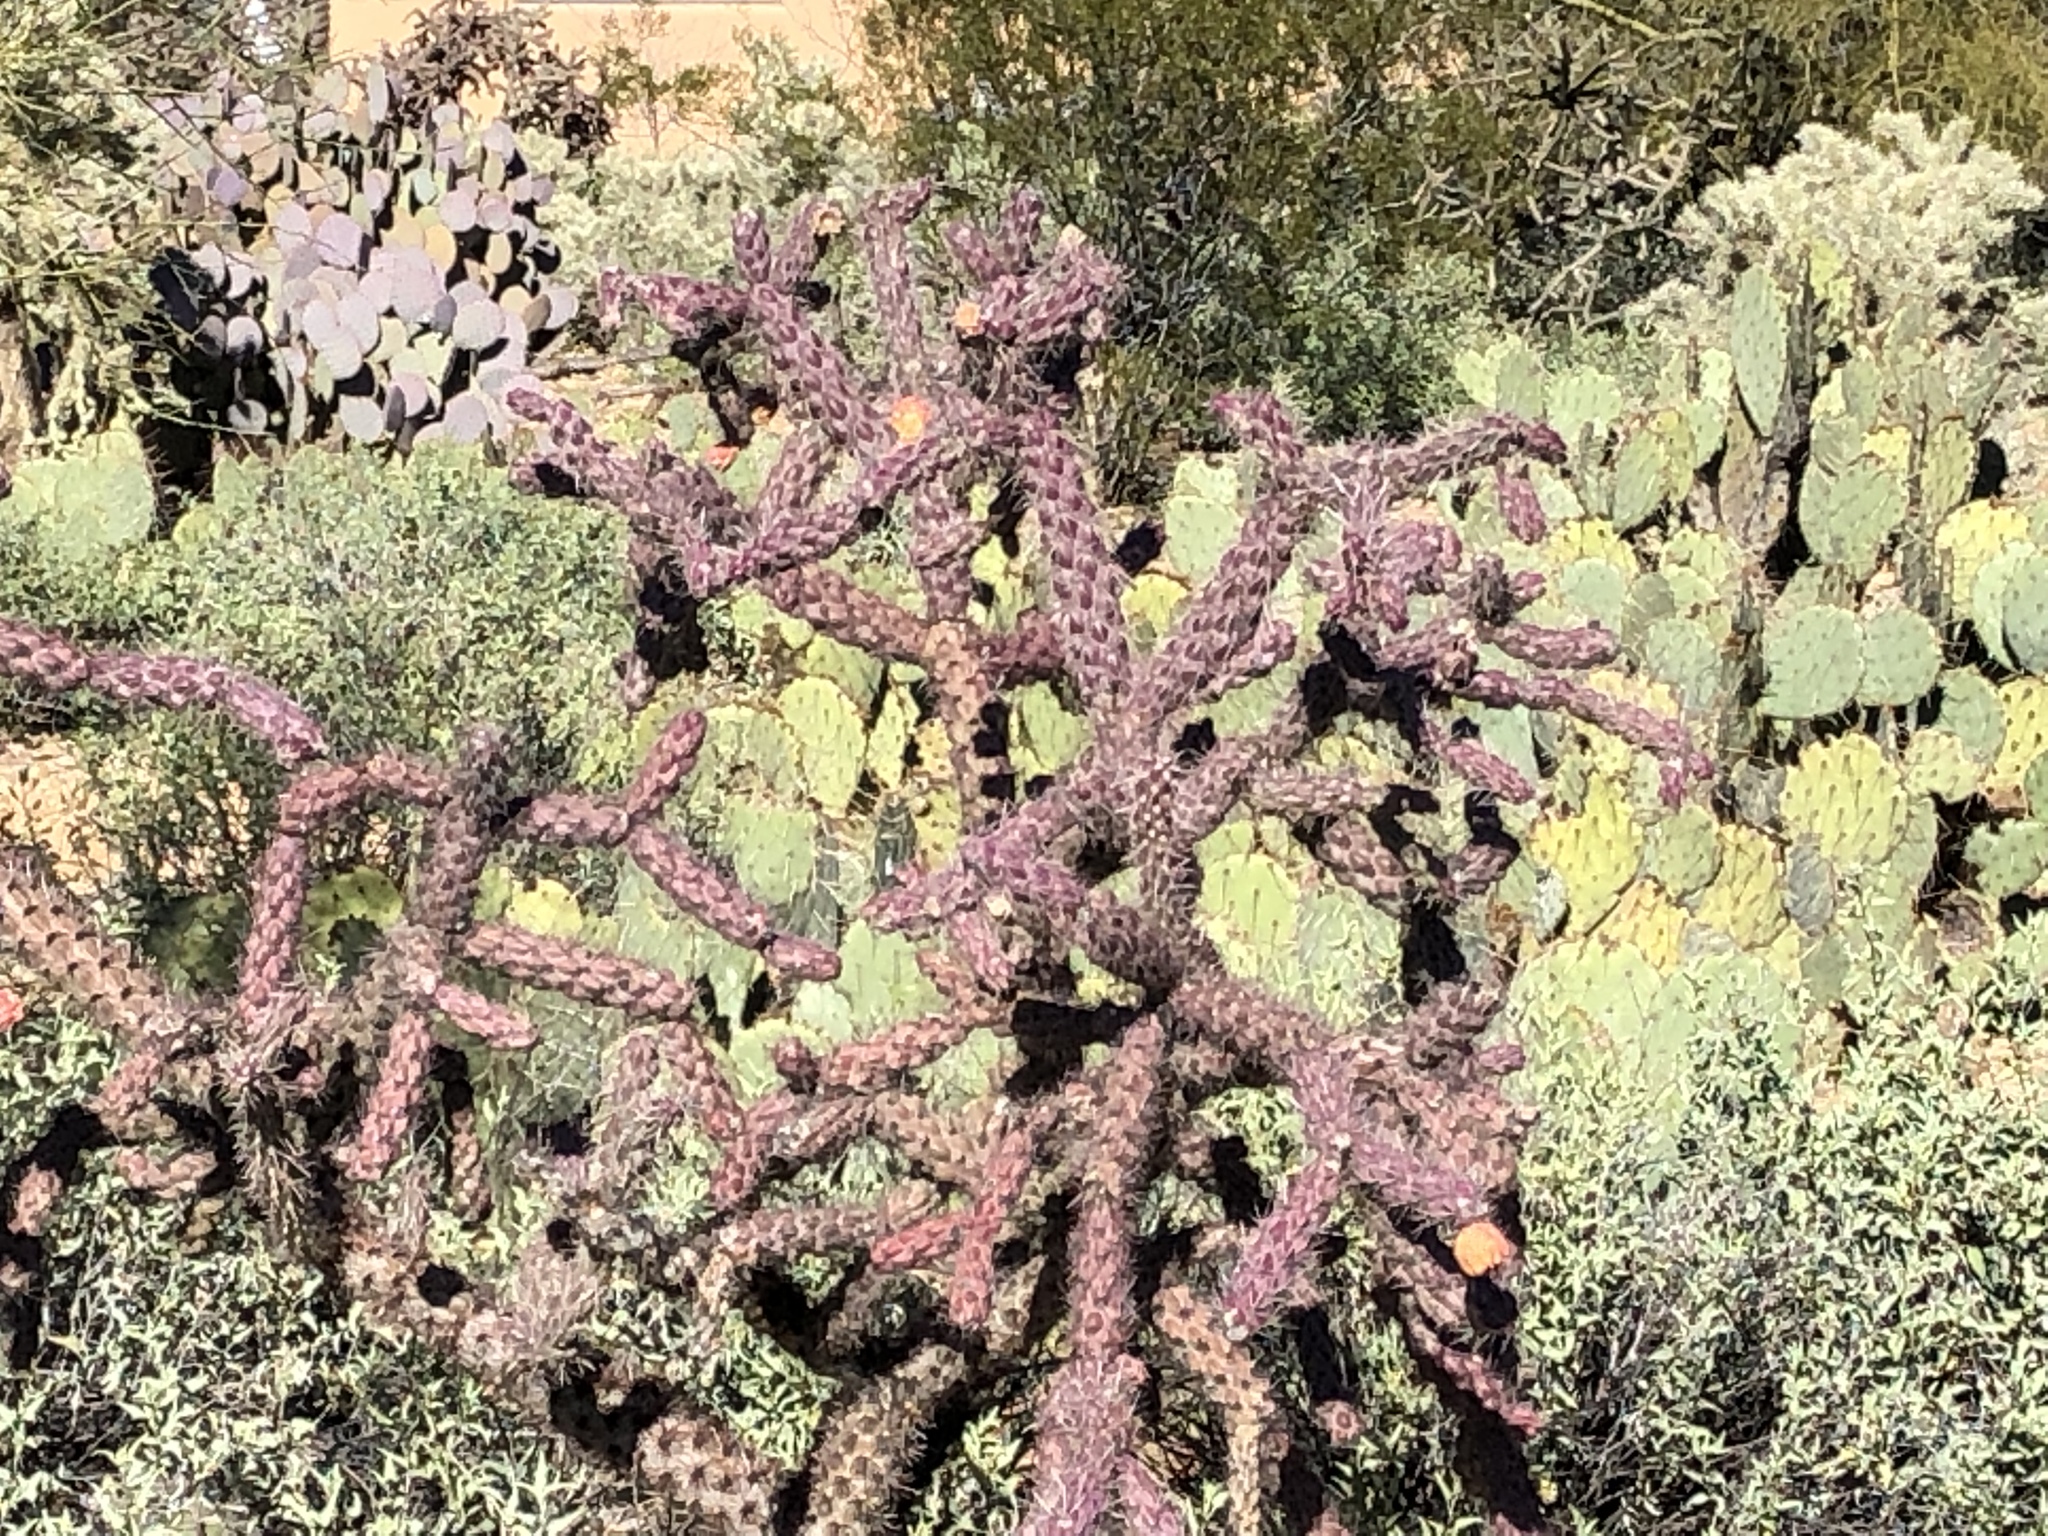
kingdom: Plantae
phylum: Tracheophyta
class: Magnoliopsida
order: Caryophyllales
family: Cactaceae
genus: Cylindropuntia
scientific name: Cylindropuntia thurberi
